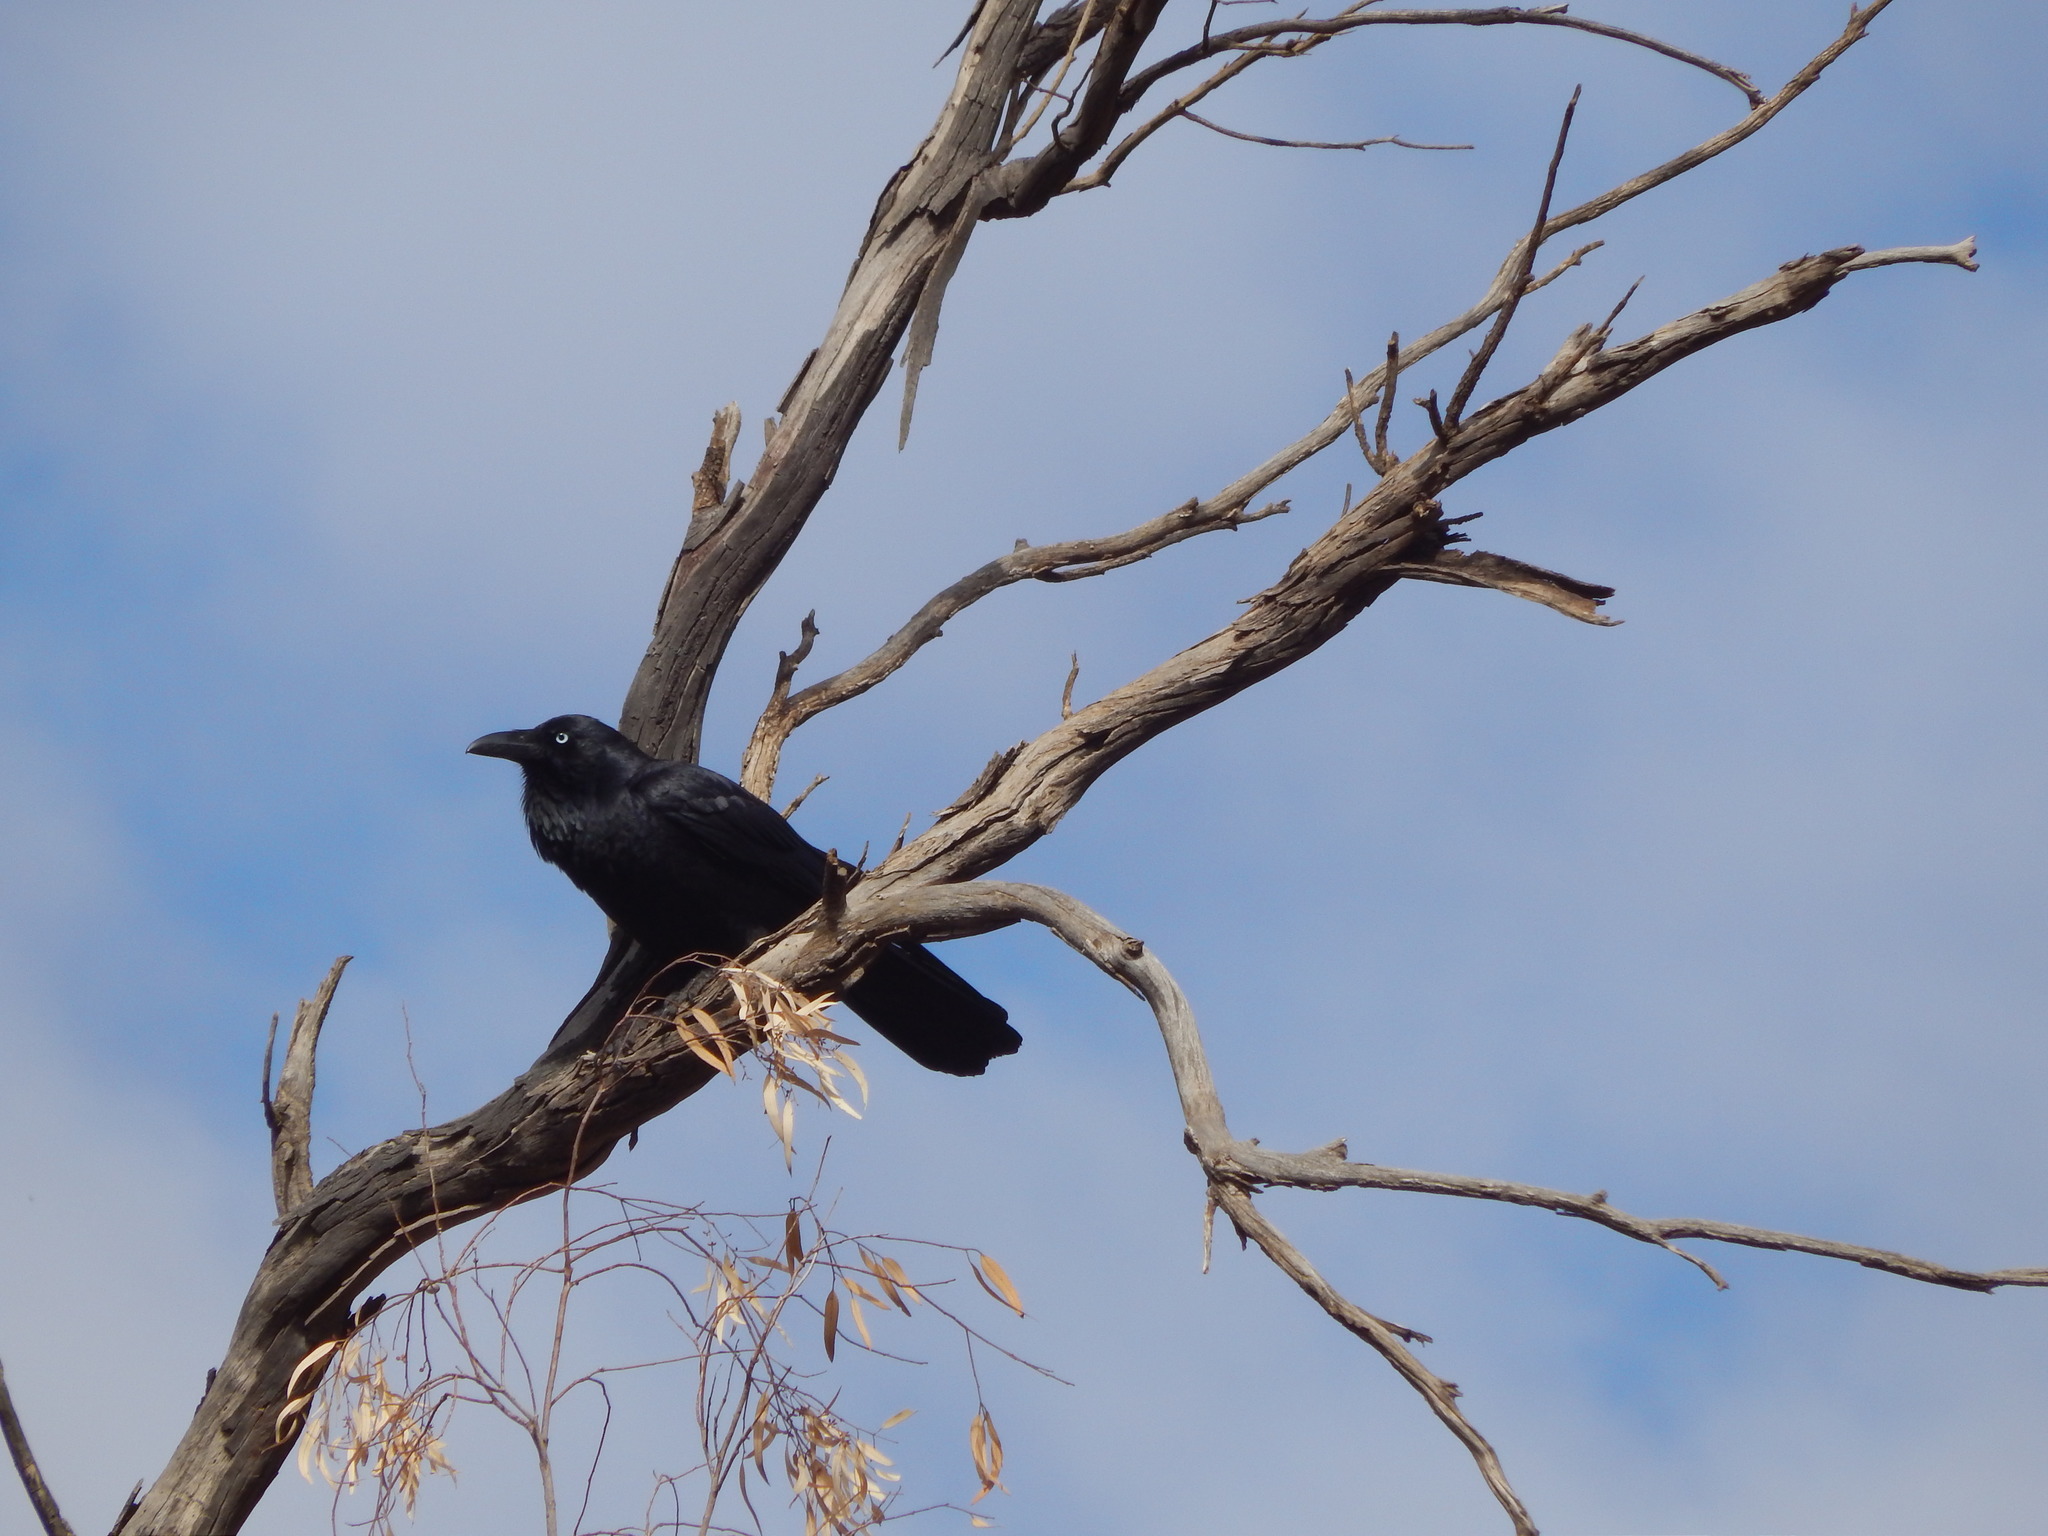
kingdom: Animalia
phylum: Chordata
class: Aves
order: Passeriformes
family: Corvidae
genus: Corvus
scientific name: Corvus coronoides
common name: Australian raven
